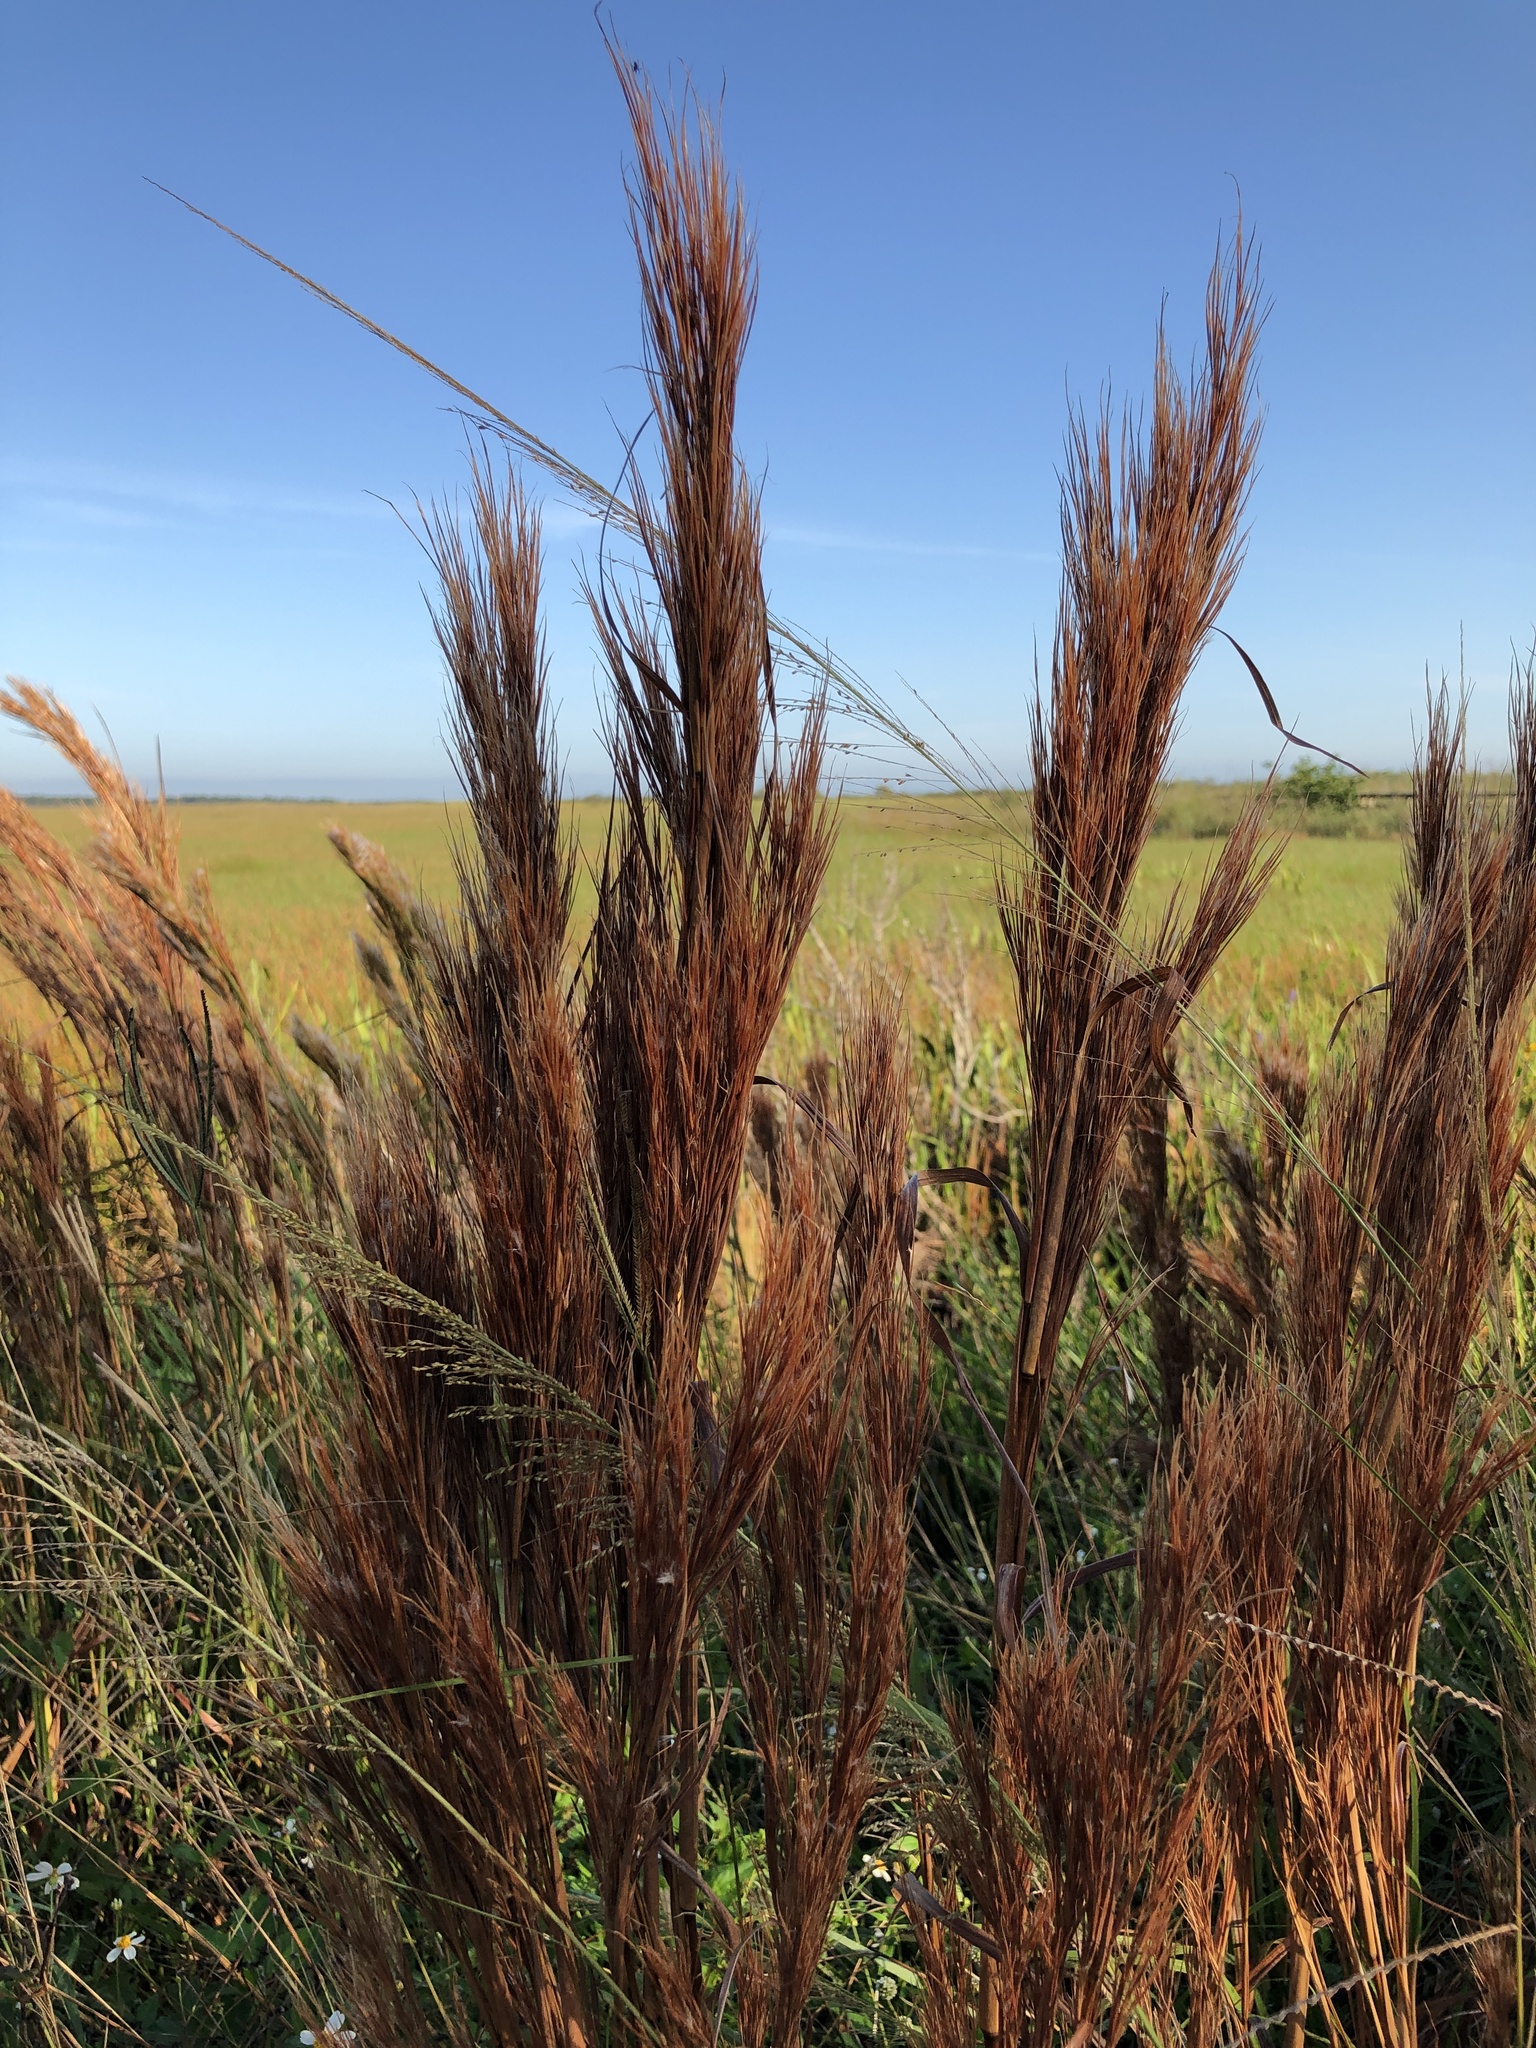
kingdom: Plantae
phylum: Tracheophyta
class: Liliopsida
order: Poales
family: Poaceae
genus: Andropogon
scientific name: Andropogon tenuispatheus
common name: Bushy bluestem
